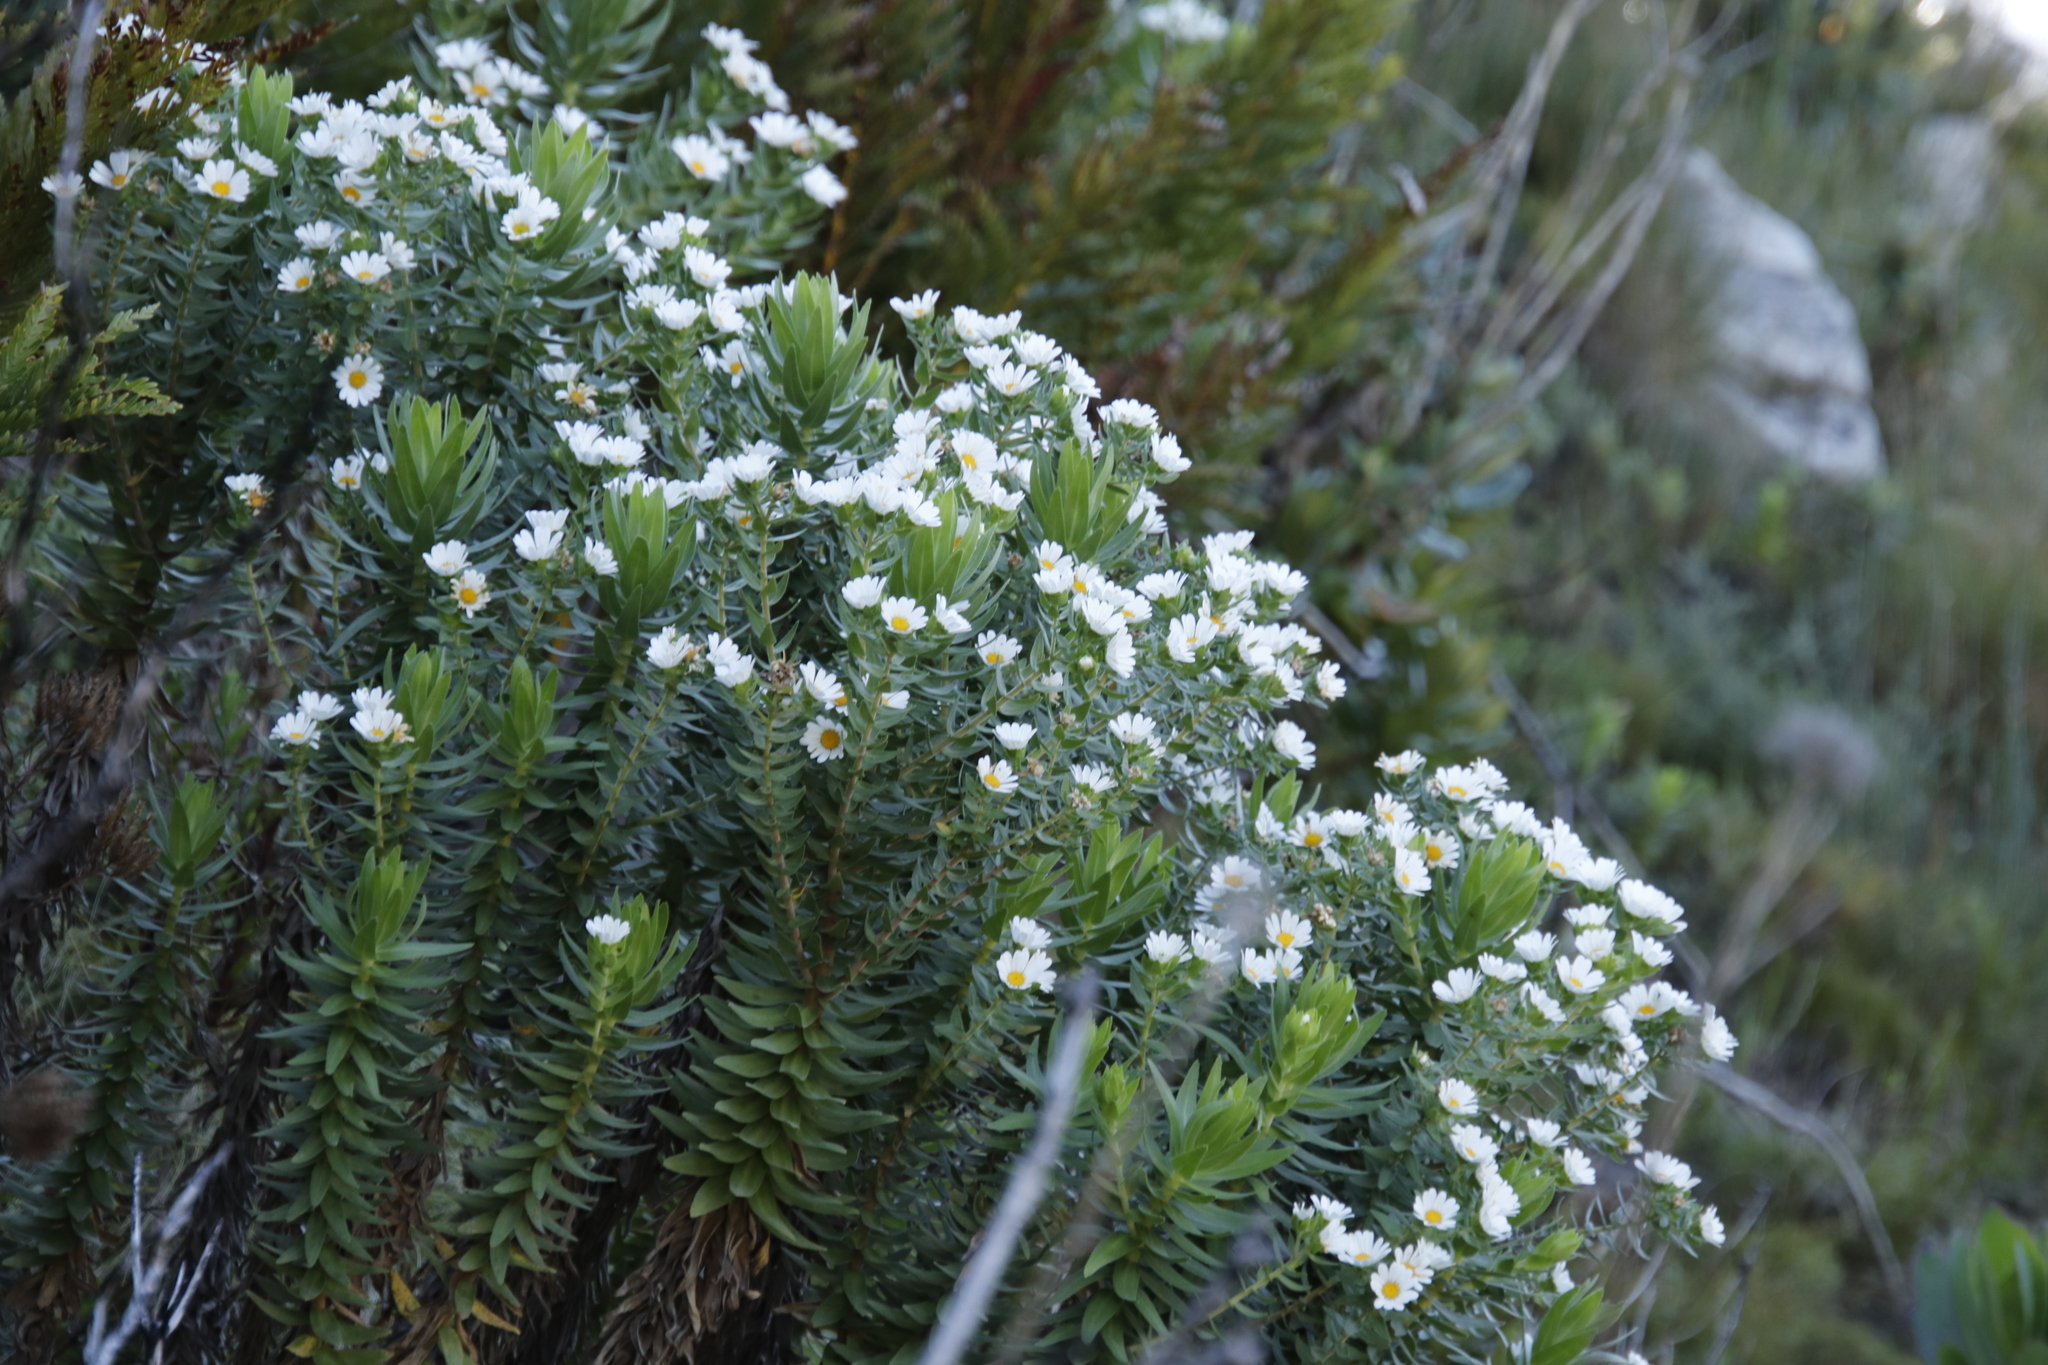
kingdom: Plantae
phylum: Tracheophyta
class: Magnoliopsida
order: Asterales
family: Asteraceae
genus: Osmitopsis
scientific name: Osmitopsis asteriscoides
